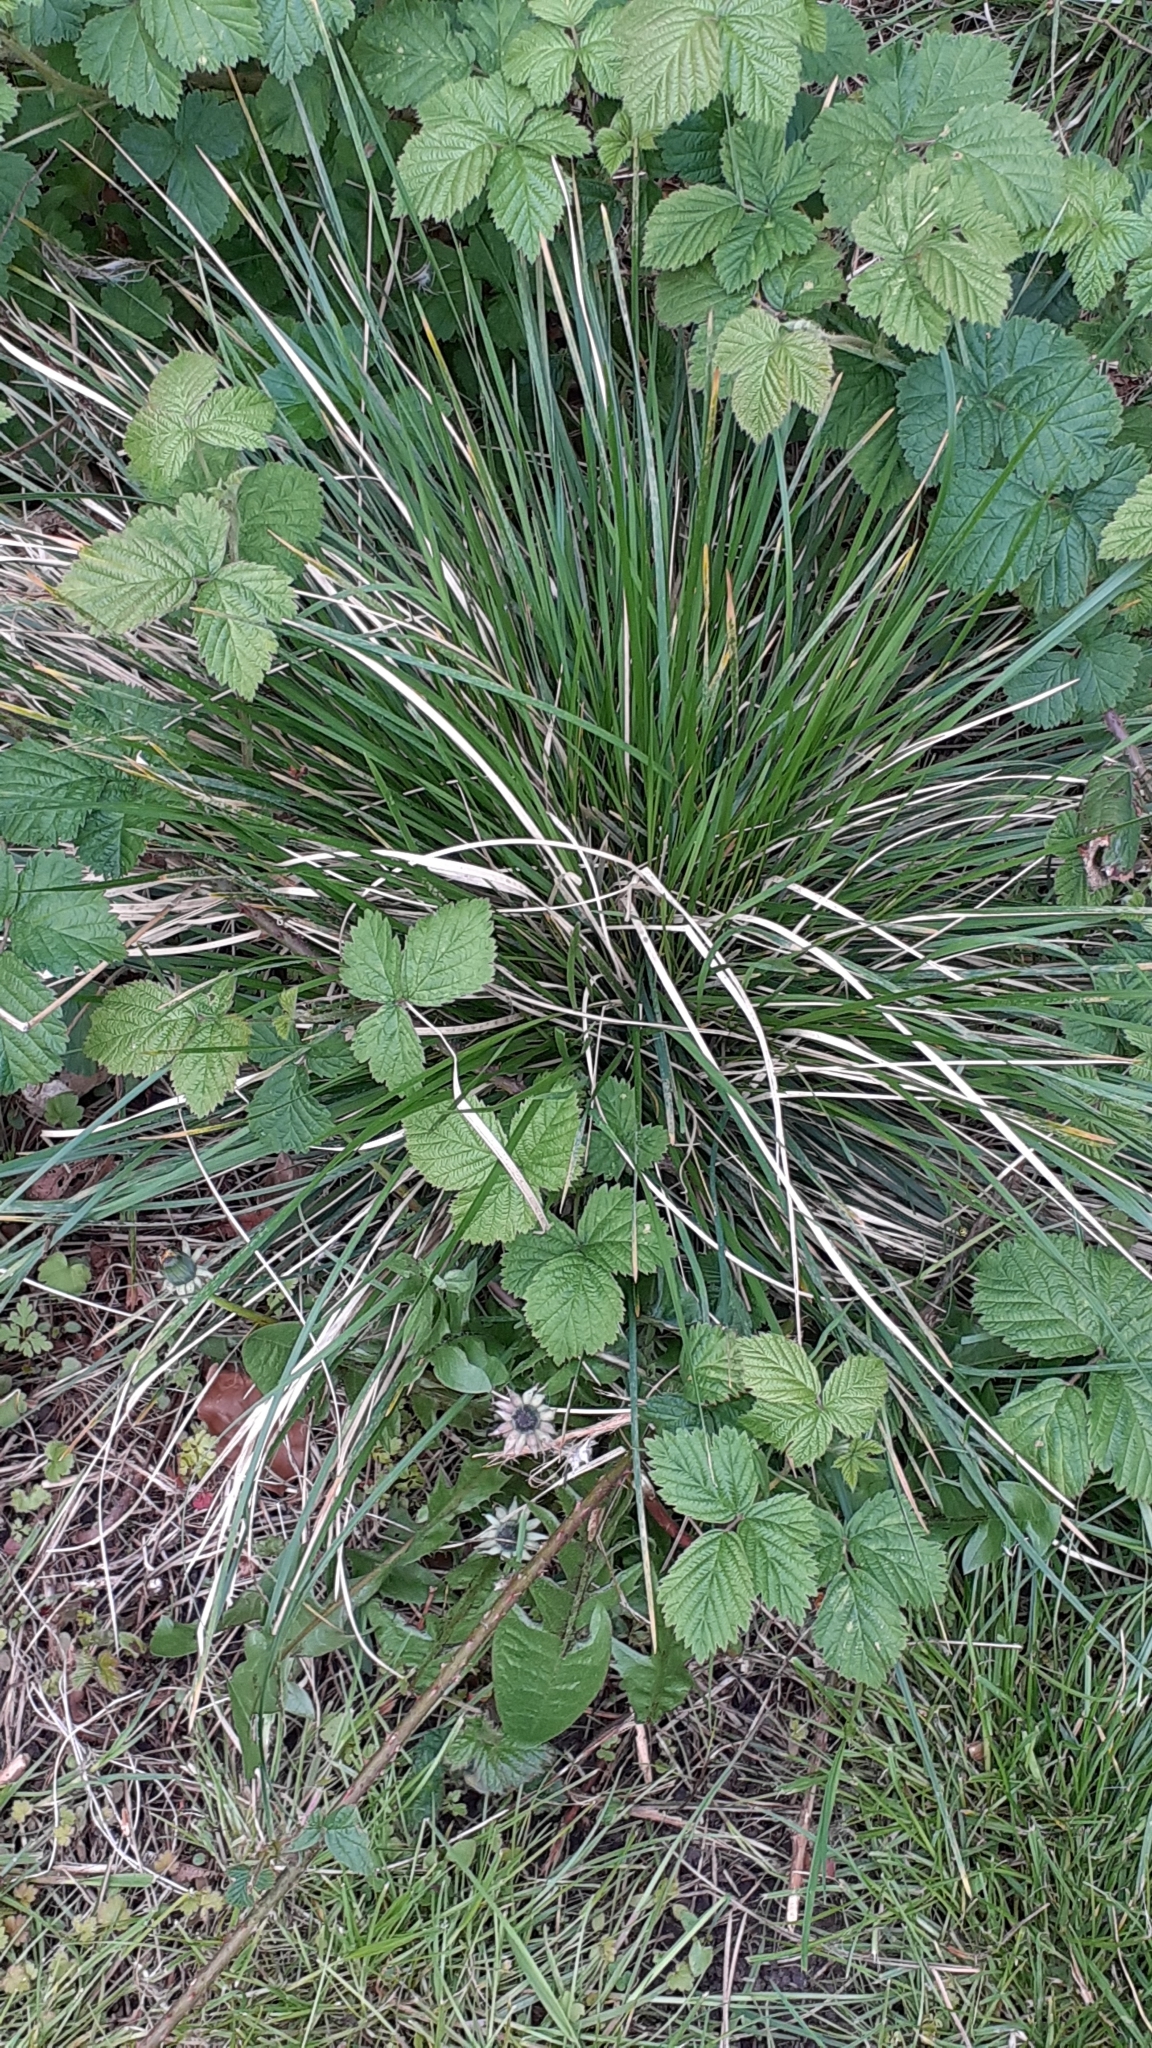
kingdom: Plantae
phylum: Tracheophyta
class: Liliopsida
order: Poales
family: Poaceae
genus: Deschampsia
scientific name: Deschampsia cespitosa
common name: Tufted hair-grass
